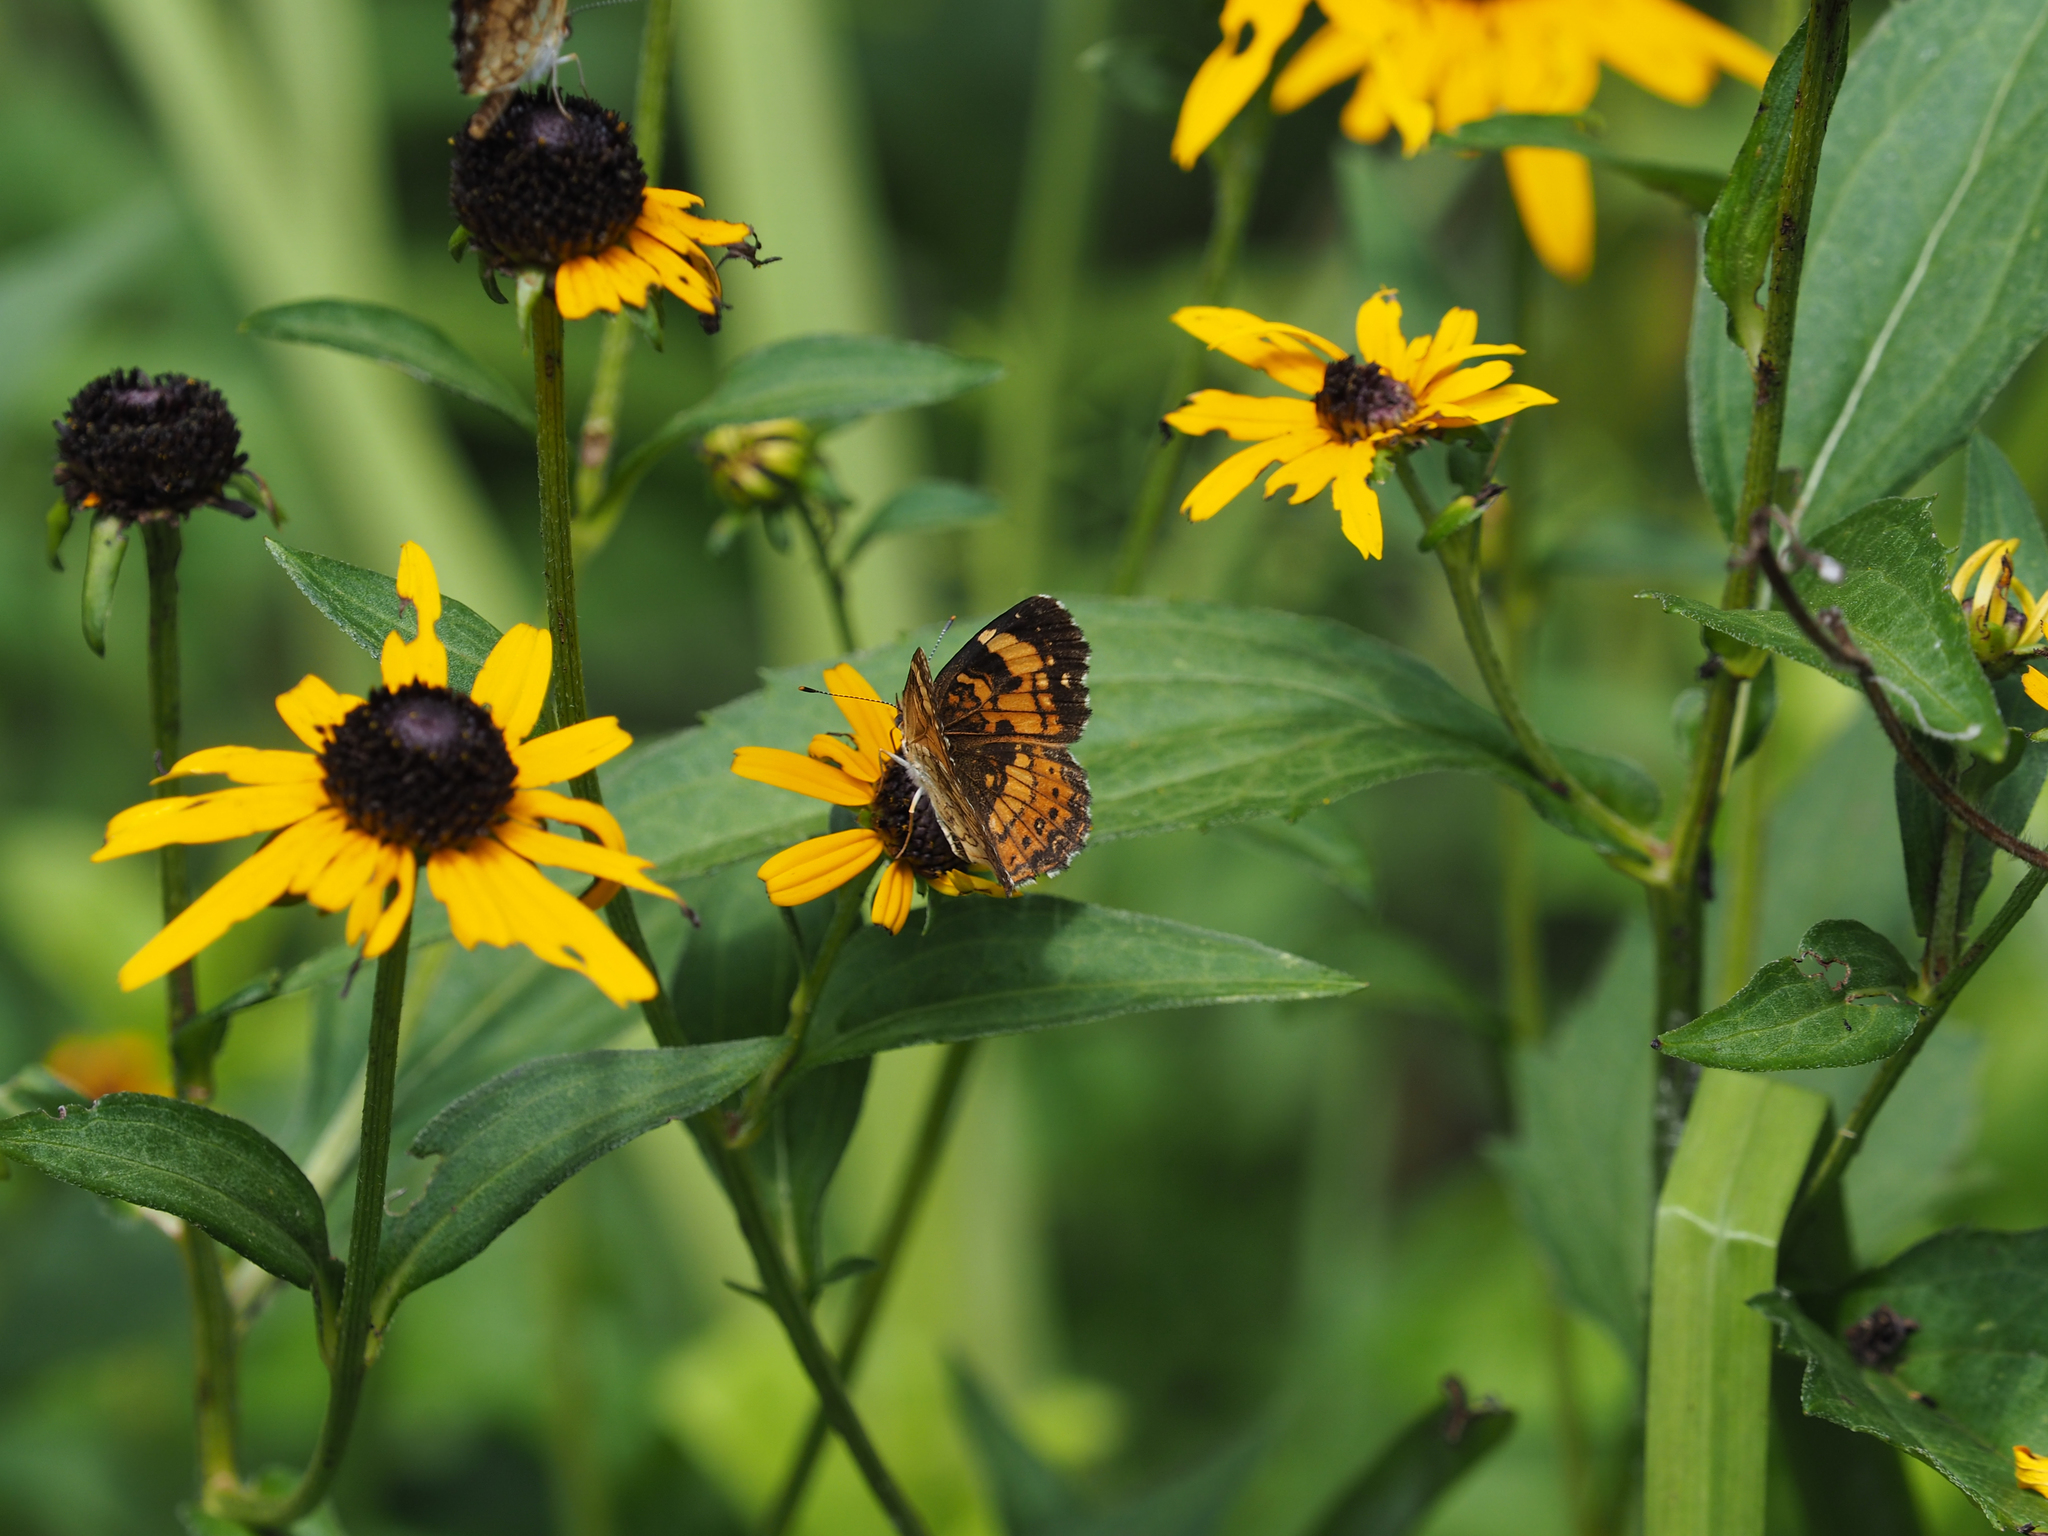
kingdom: Animalia
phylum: Arthropoda
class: Insecta
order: Lepidoptera
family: Nymphalidae
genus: Chlosyne
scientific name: Chlosyne nycteis
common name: Silvery checkerspot
